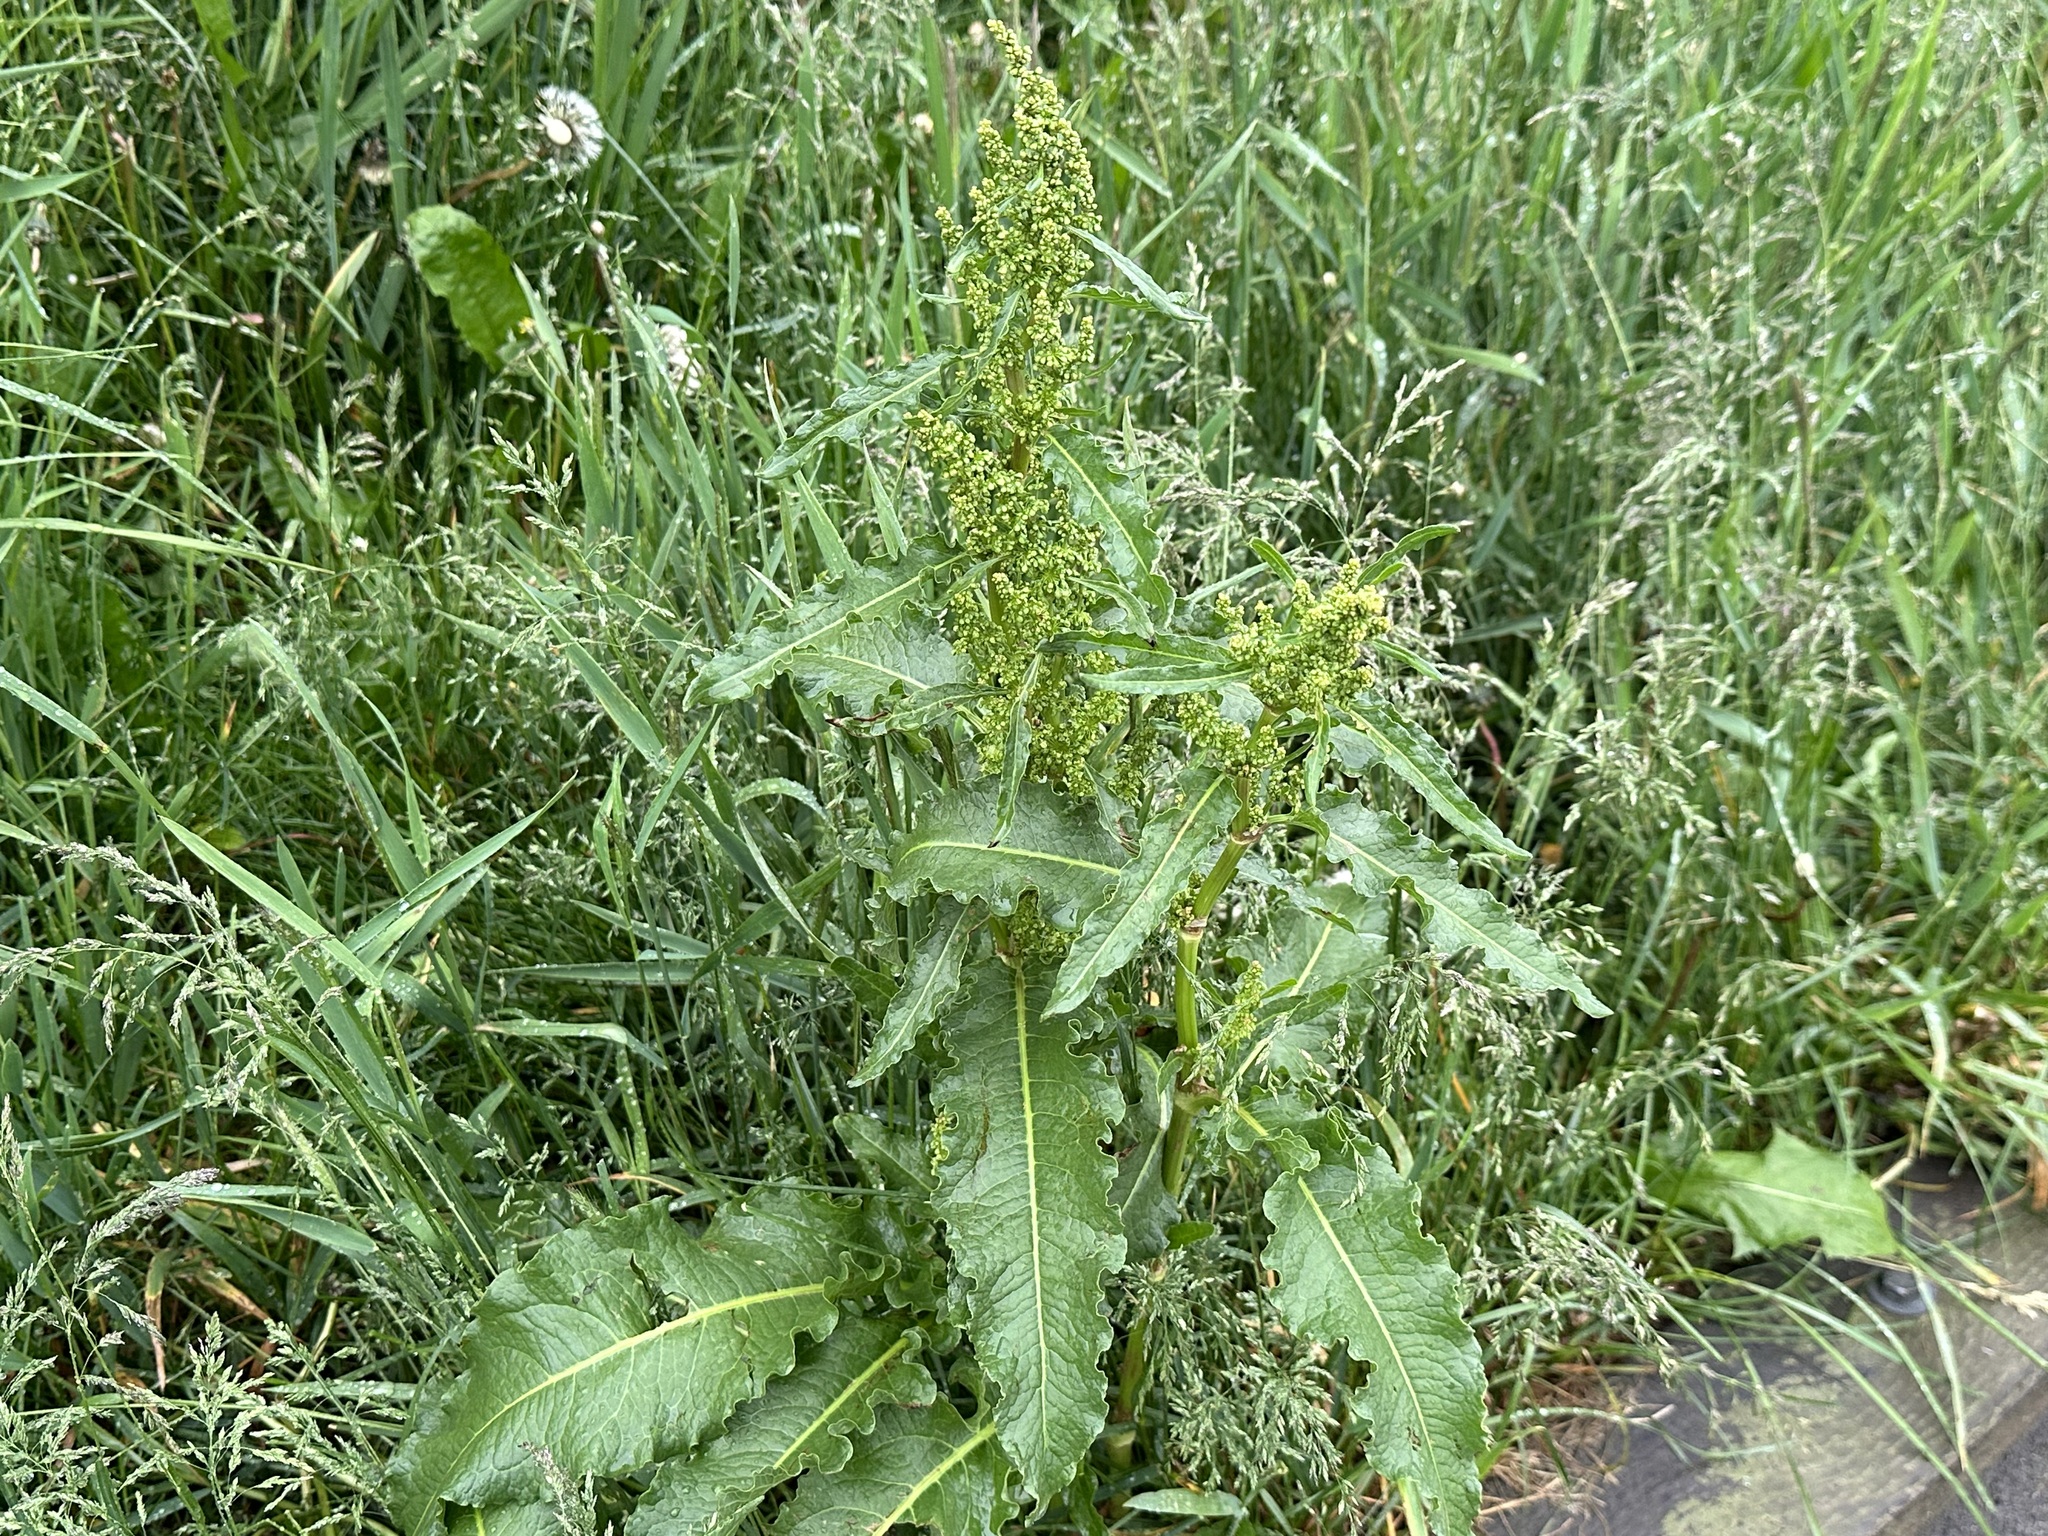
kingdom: Plantae
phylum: Tracheophyta
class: Magnoliopsida
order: Caryophyllales
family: Polygonaceae
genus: Rumex
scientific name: Rumex crispus
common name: Curled dock
